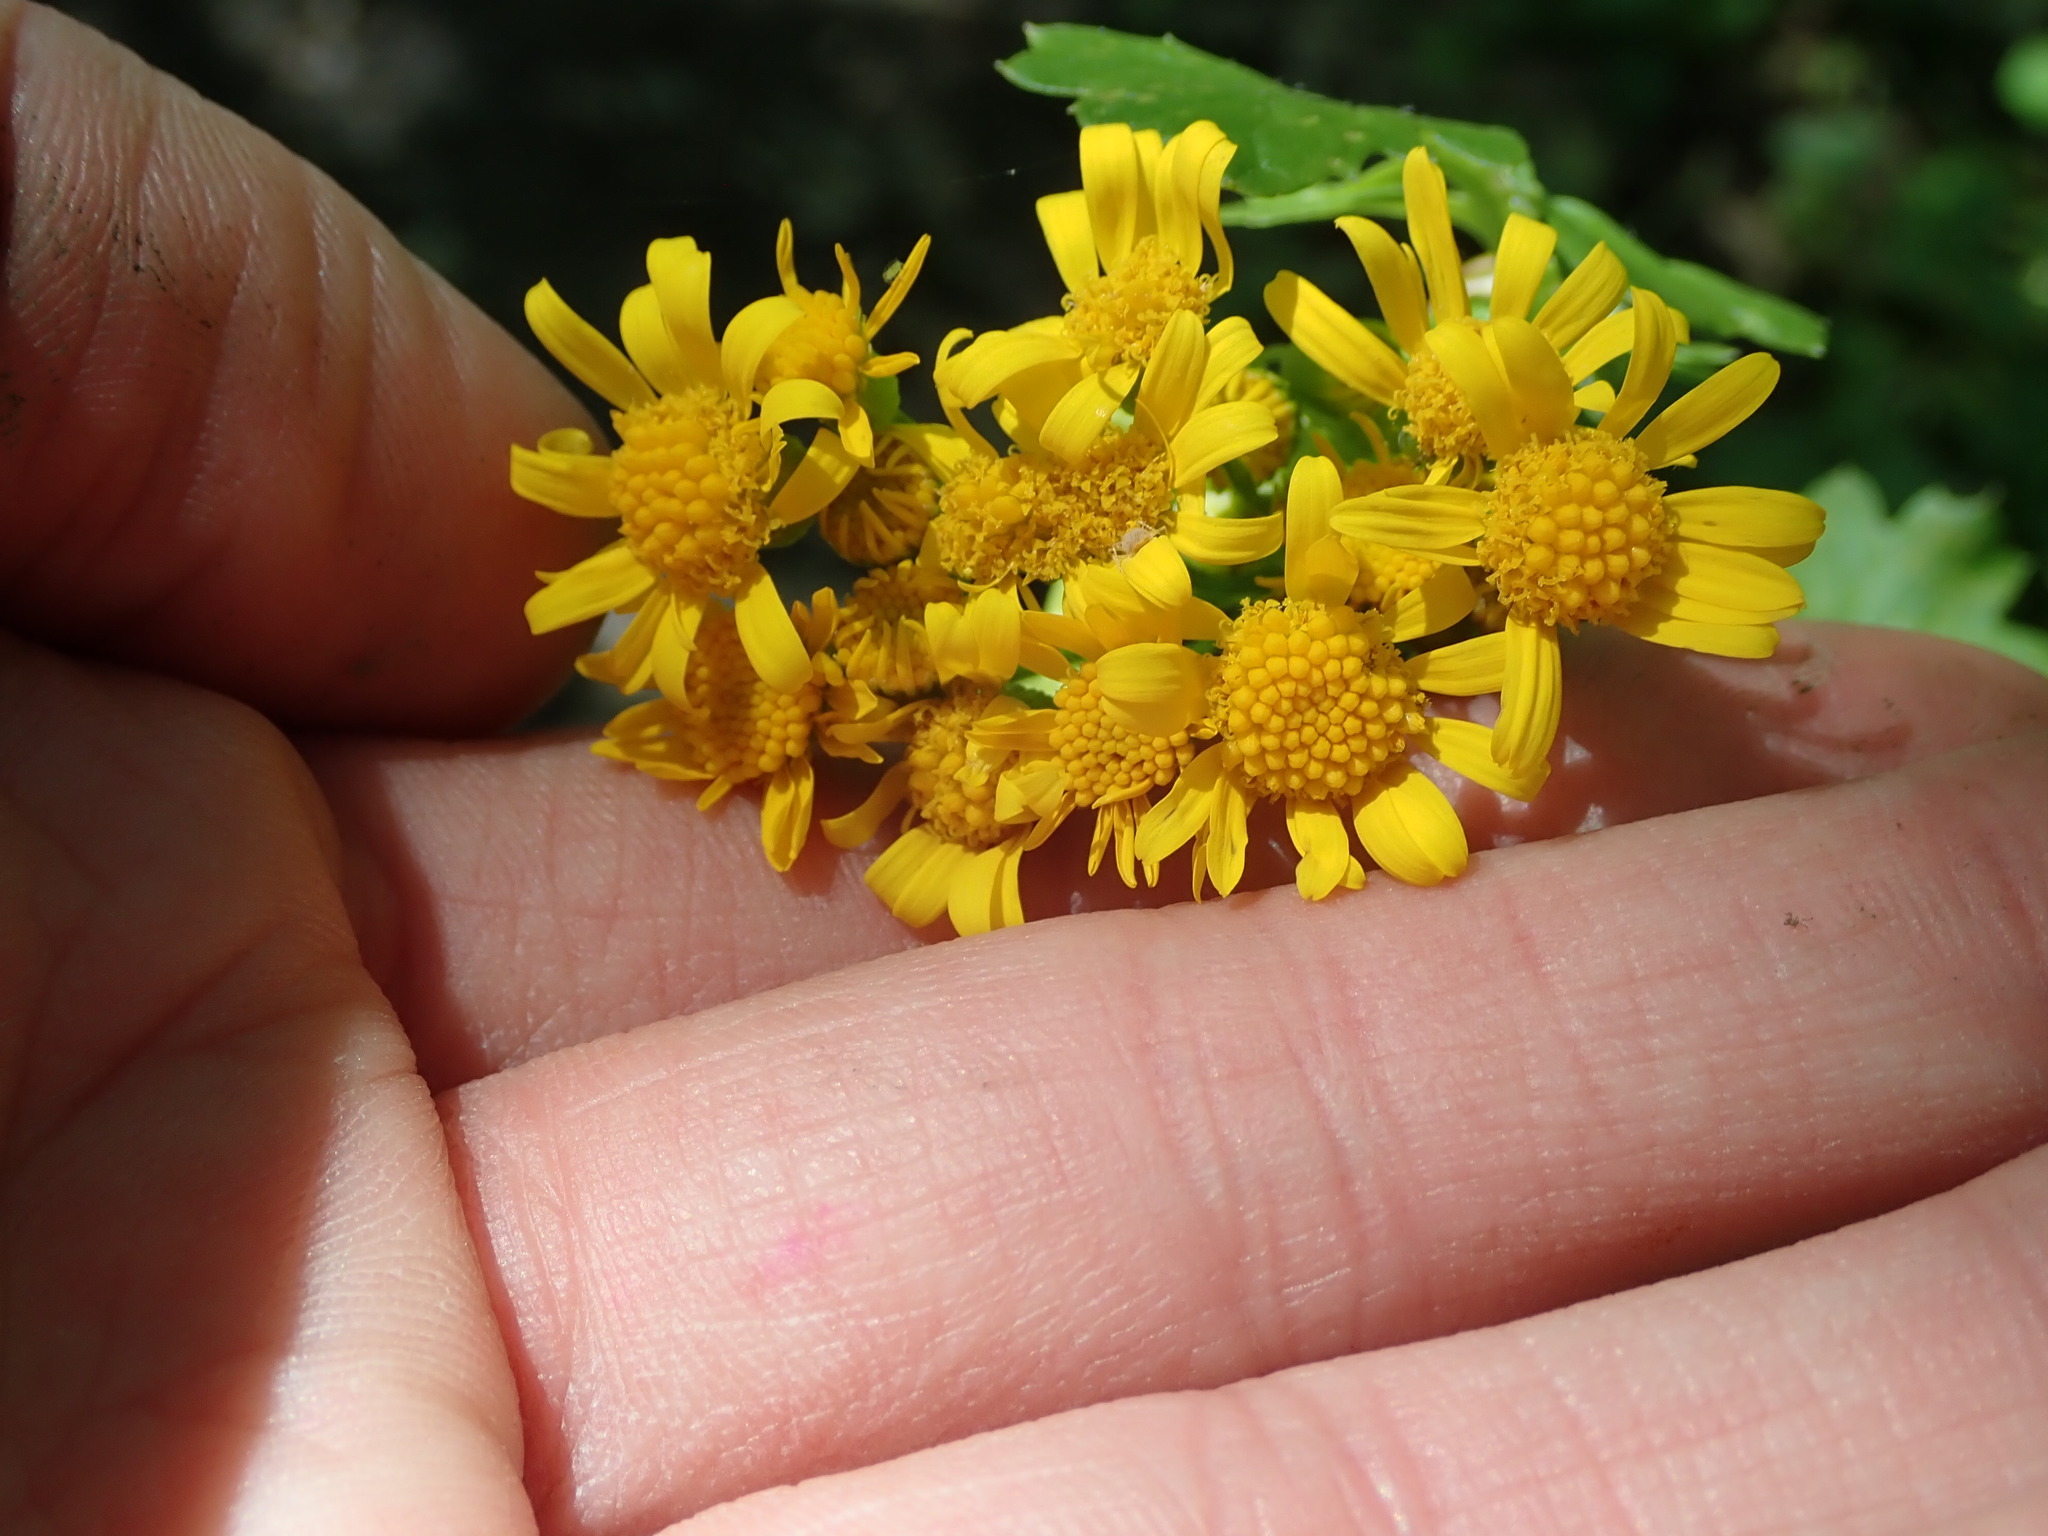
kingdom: Plantae
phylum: Tracheophyta
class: Magnoliopsida
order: Asterales
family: Asteraceae
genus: Packera
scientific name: Packera glabella
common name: Butterweed
